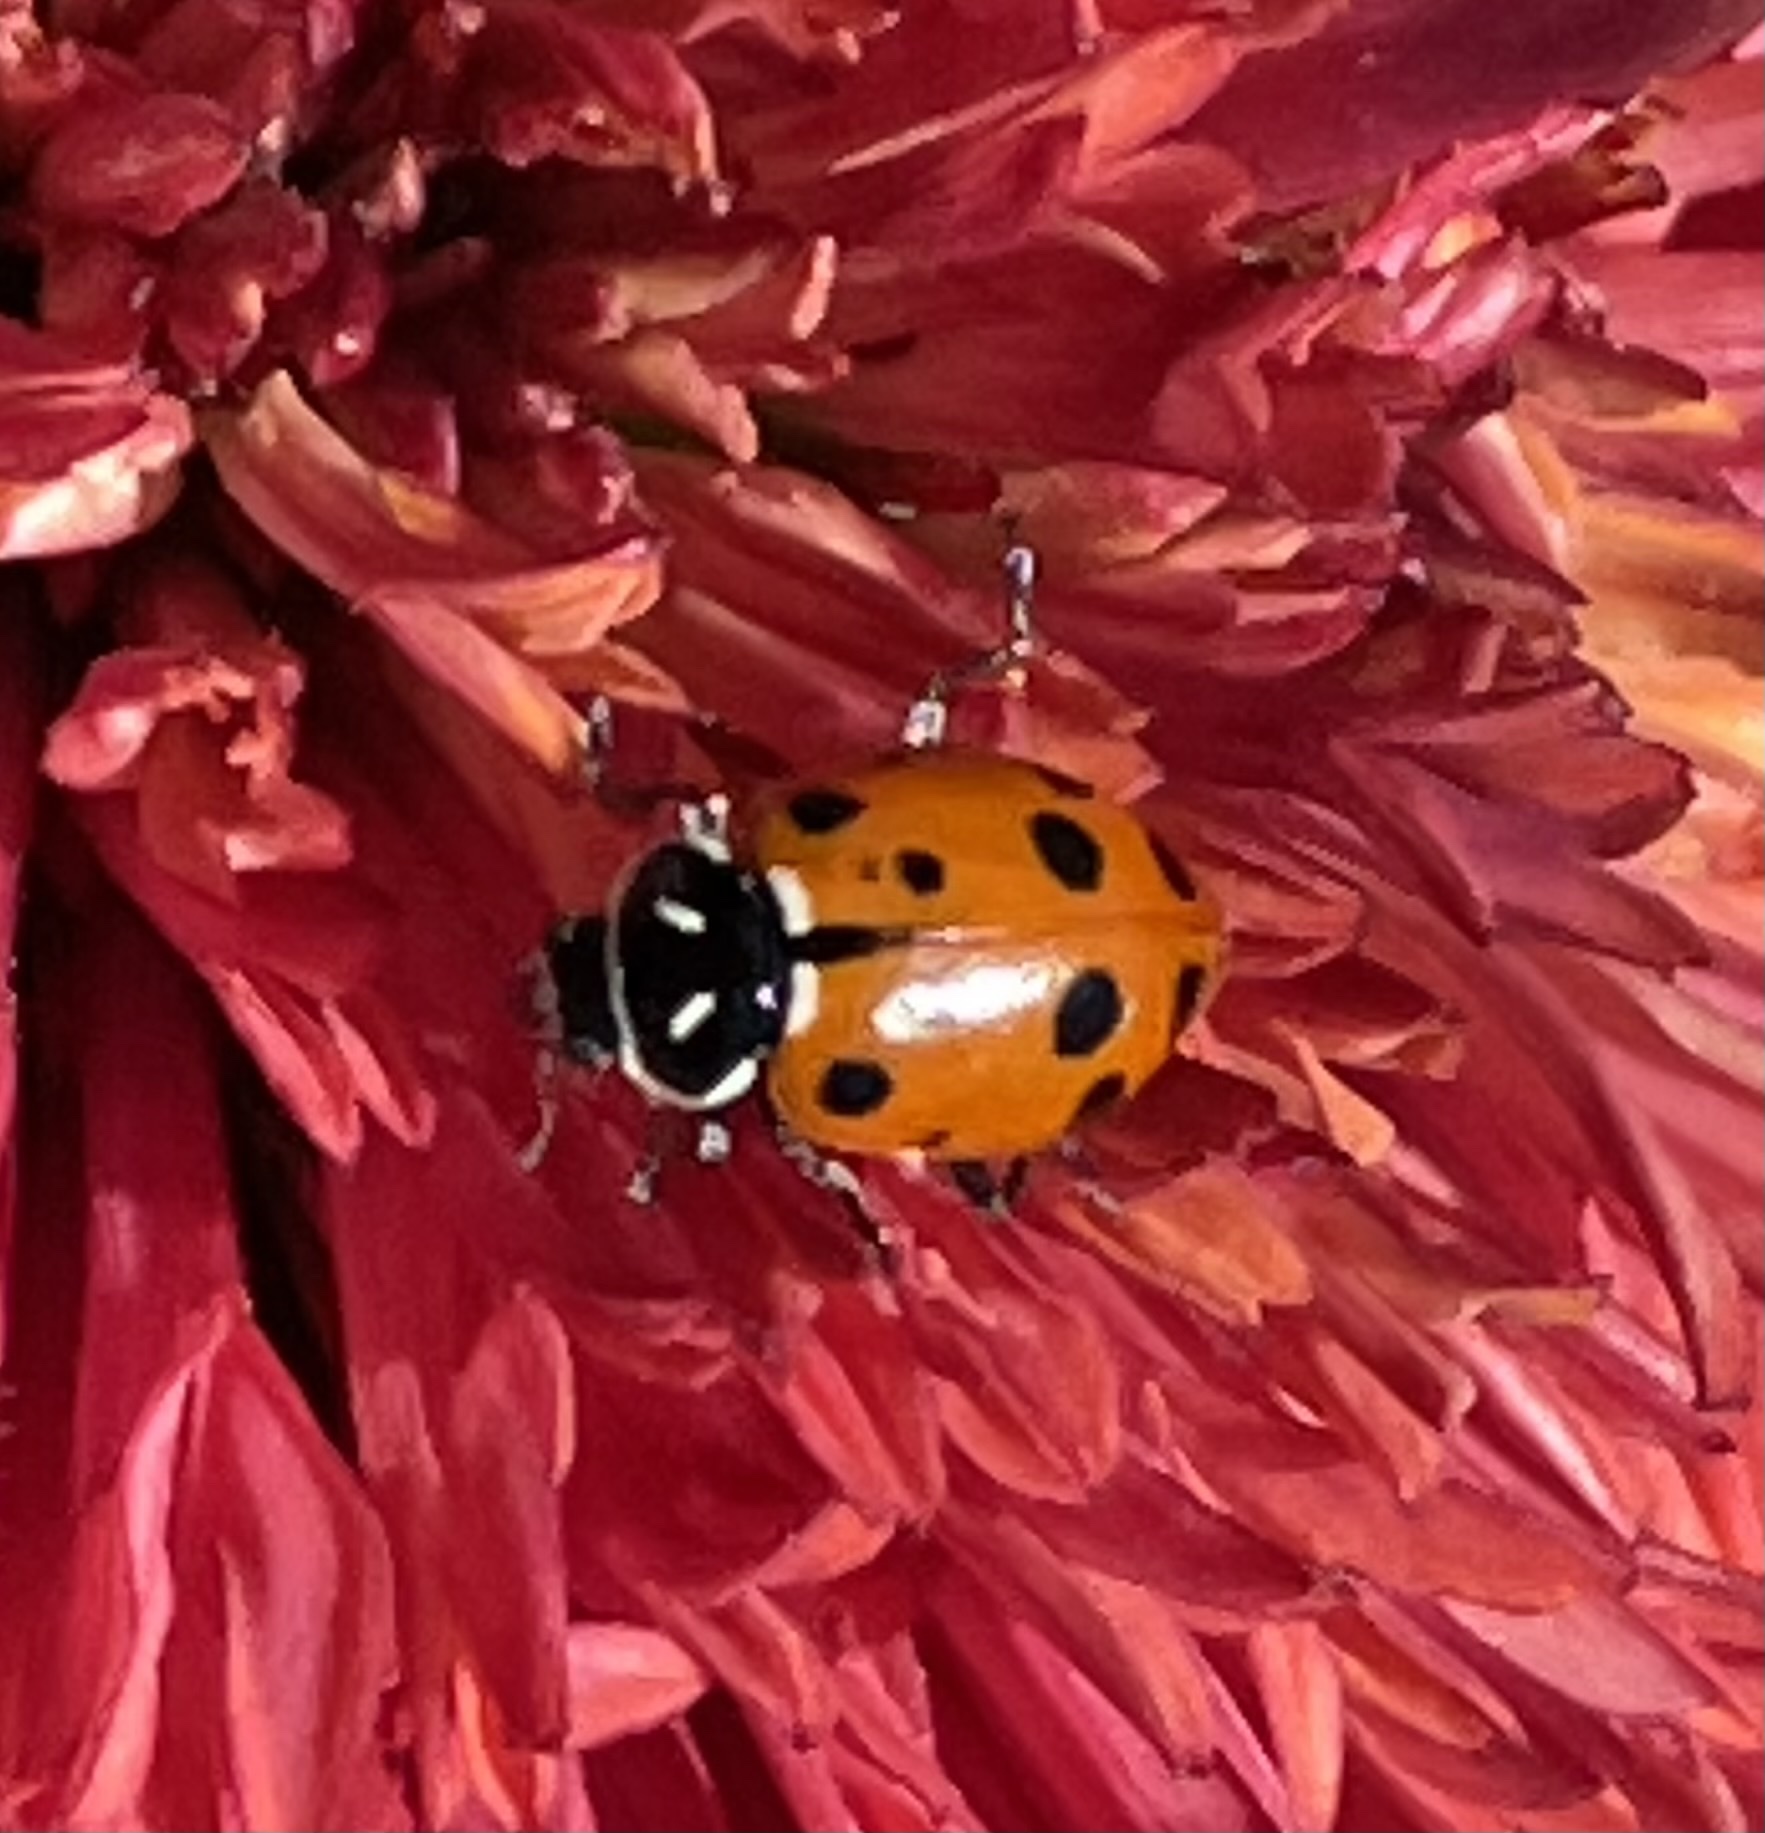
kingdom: Animalia
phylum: Arthropoda
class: Insecta
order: Coleoptera
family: Coccinellidae
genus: Hippodamia
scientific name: Hippodamia convergens
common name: Convergent lady beetle
